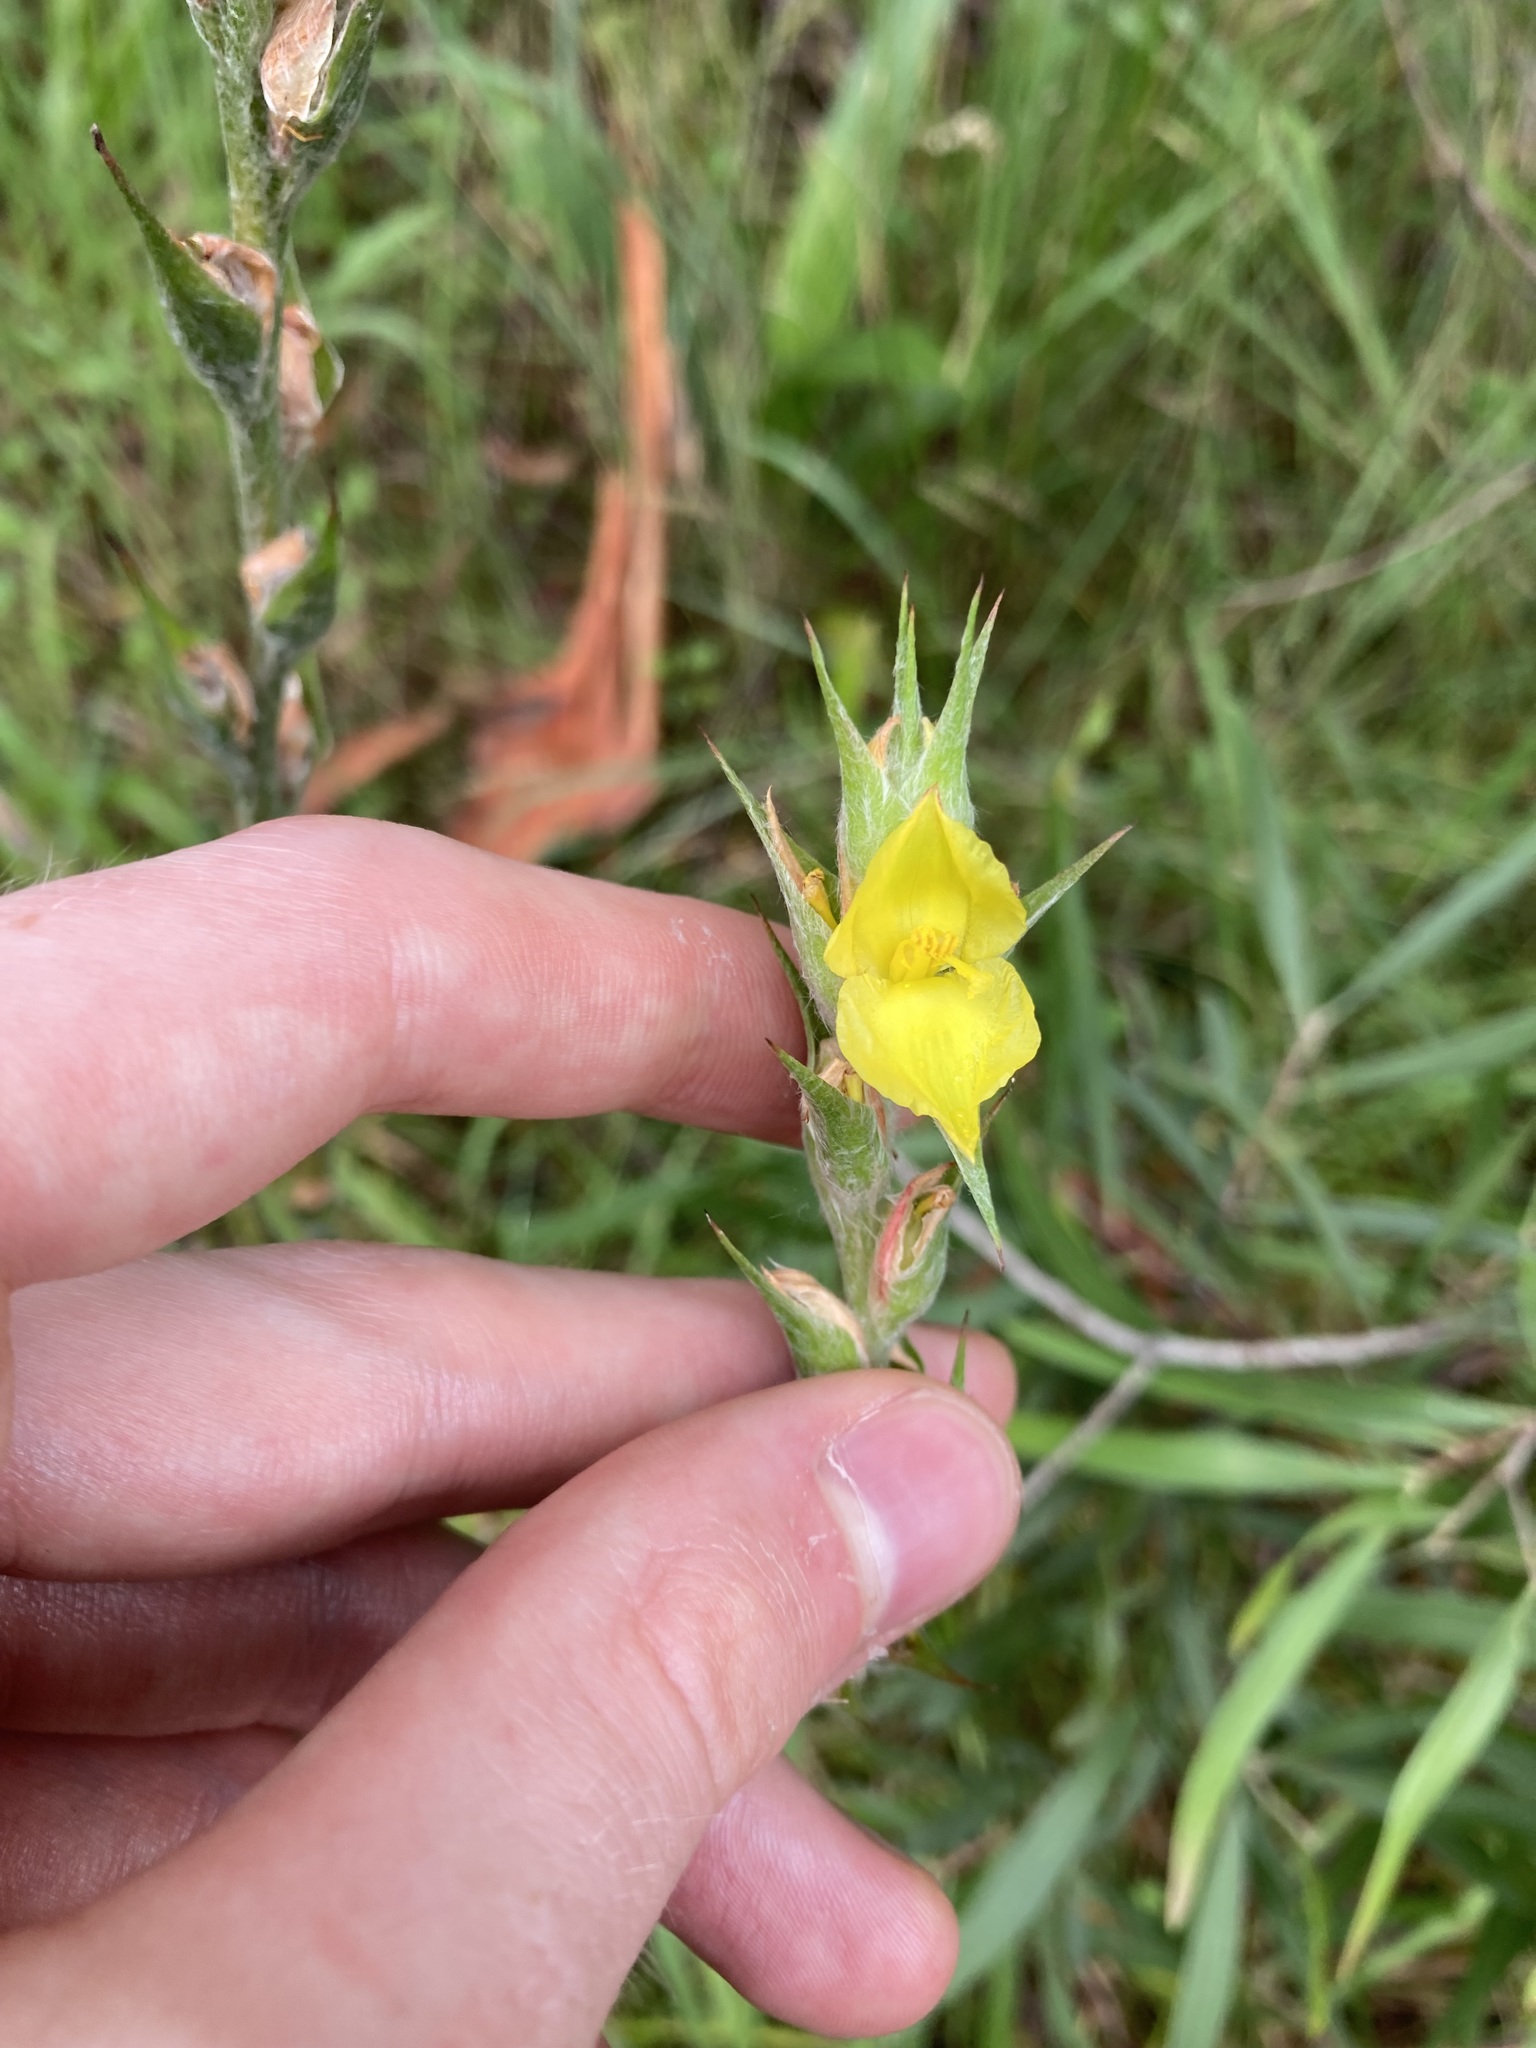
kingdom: Plantae
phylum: Tracheophyta
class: Liliopsida
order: Commelinales
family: Philydraceae
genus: Philydrum
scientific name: Philydrum lanuginosum
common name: Woolly frog's mouth
